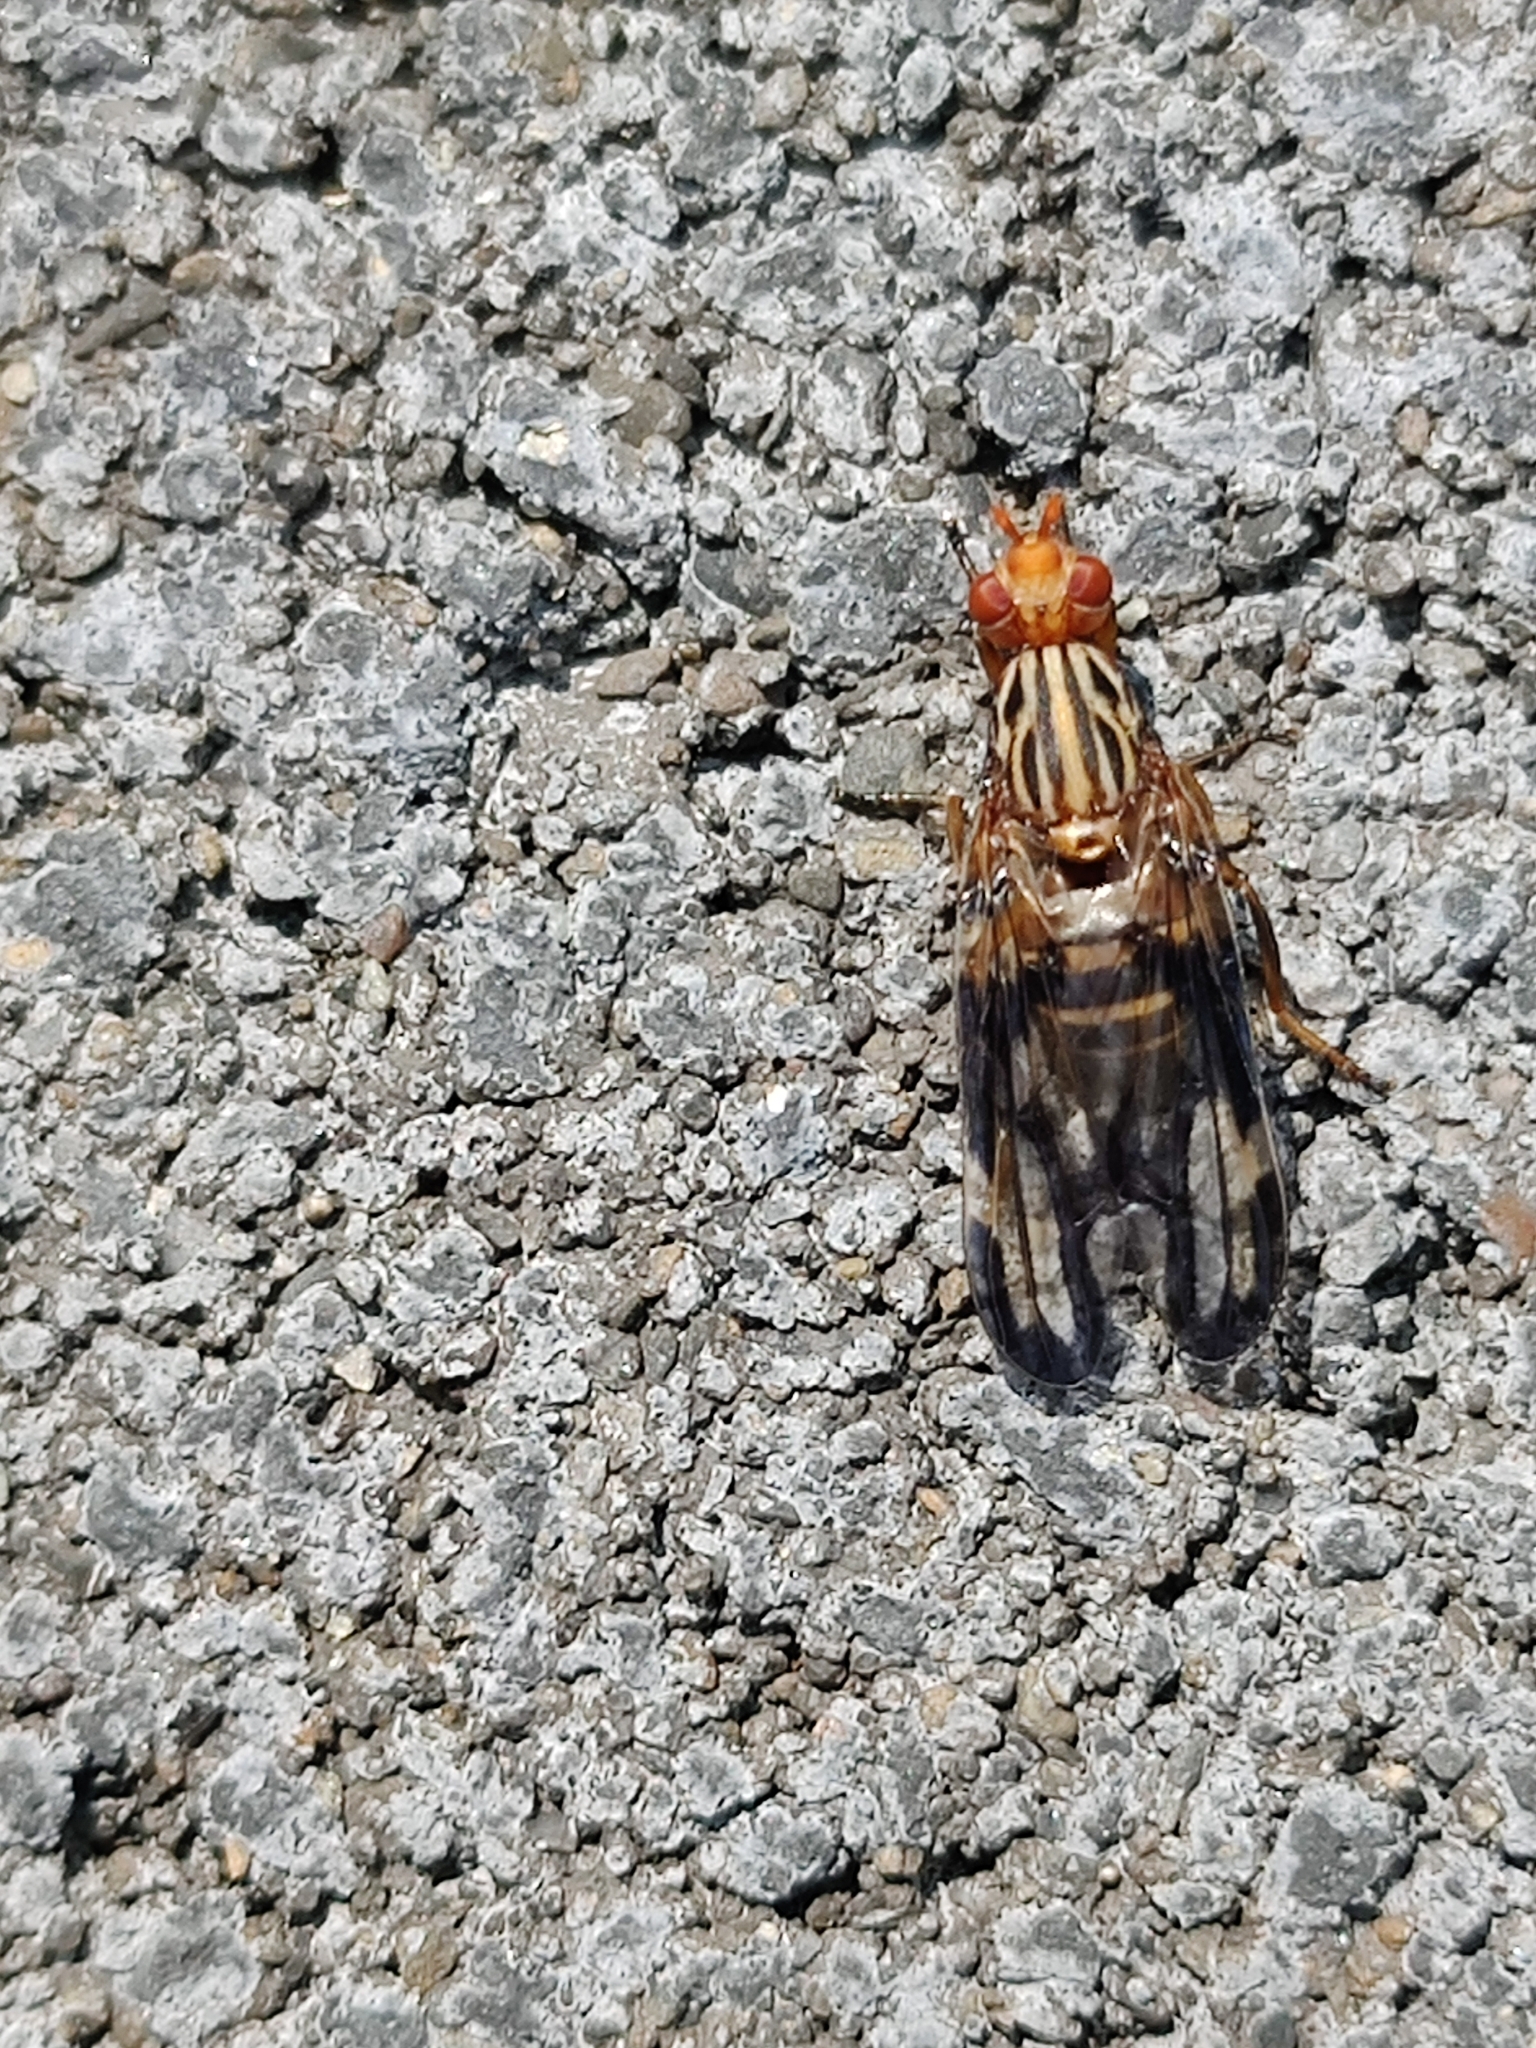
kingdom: Animalia
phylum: Arthropoda
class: Insecta
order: Diptera
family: Ulidiidae
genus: Idana
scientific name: Idana marginata
